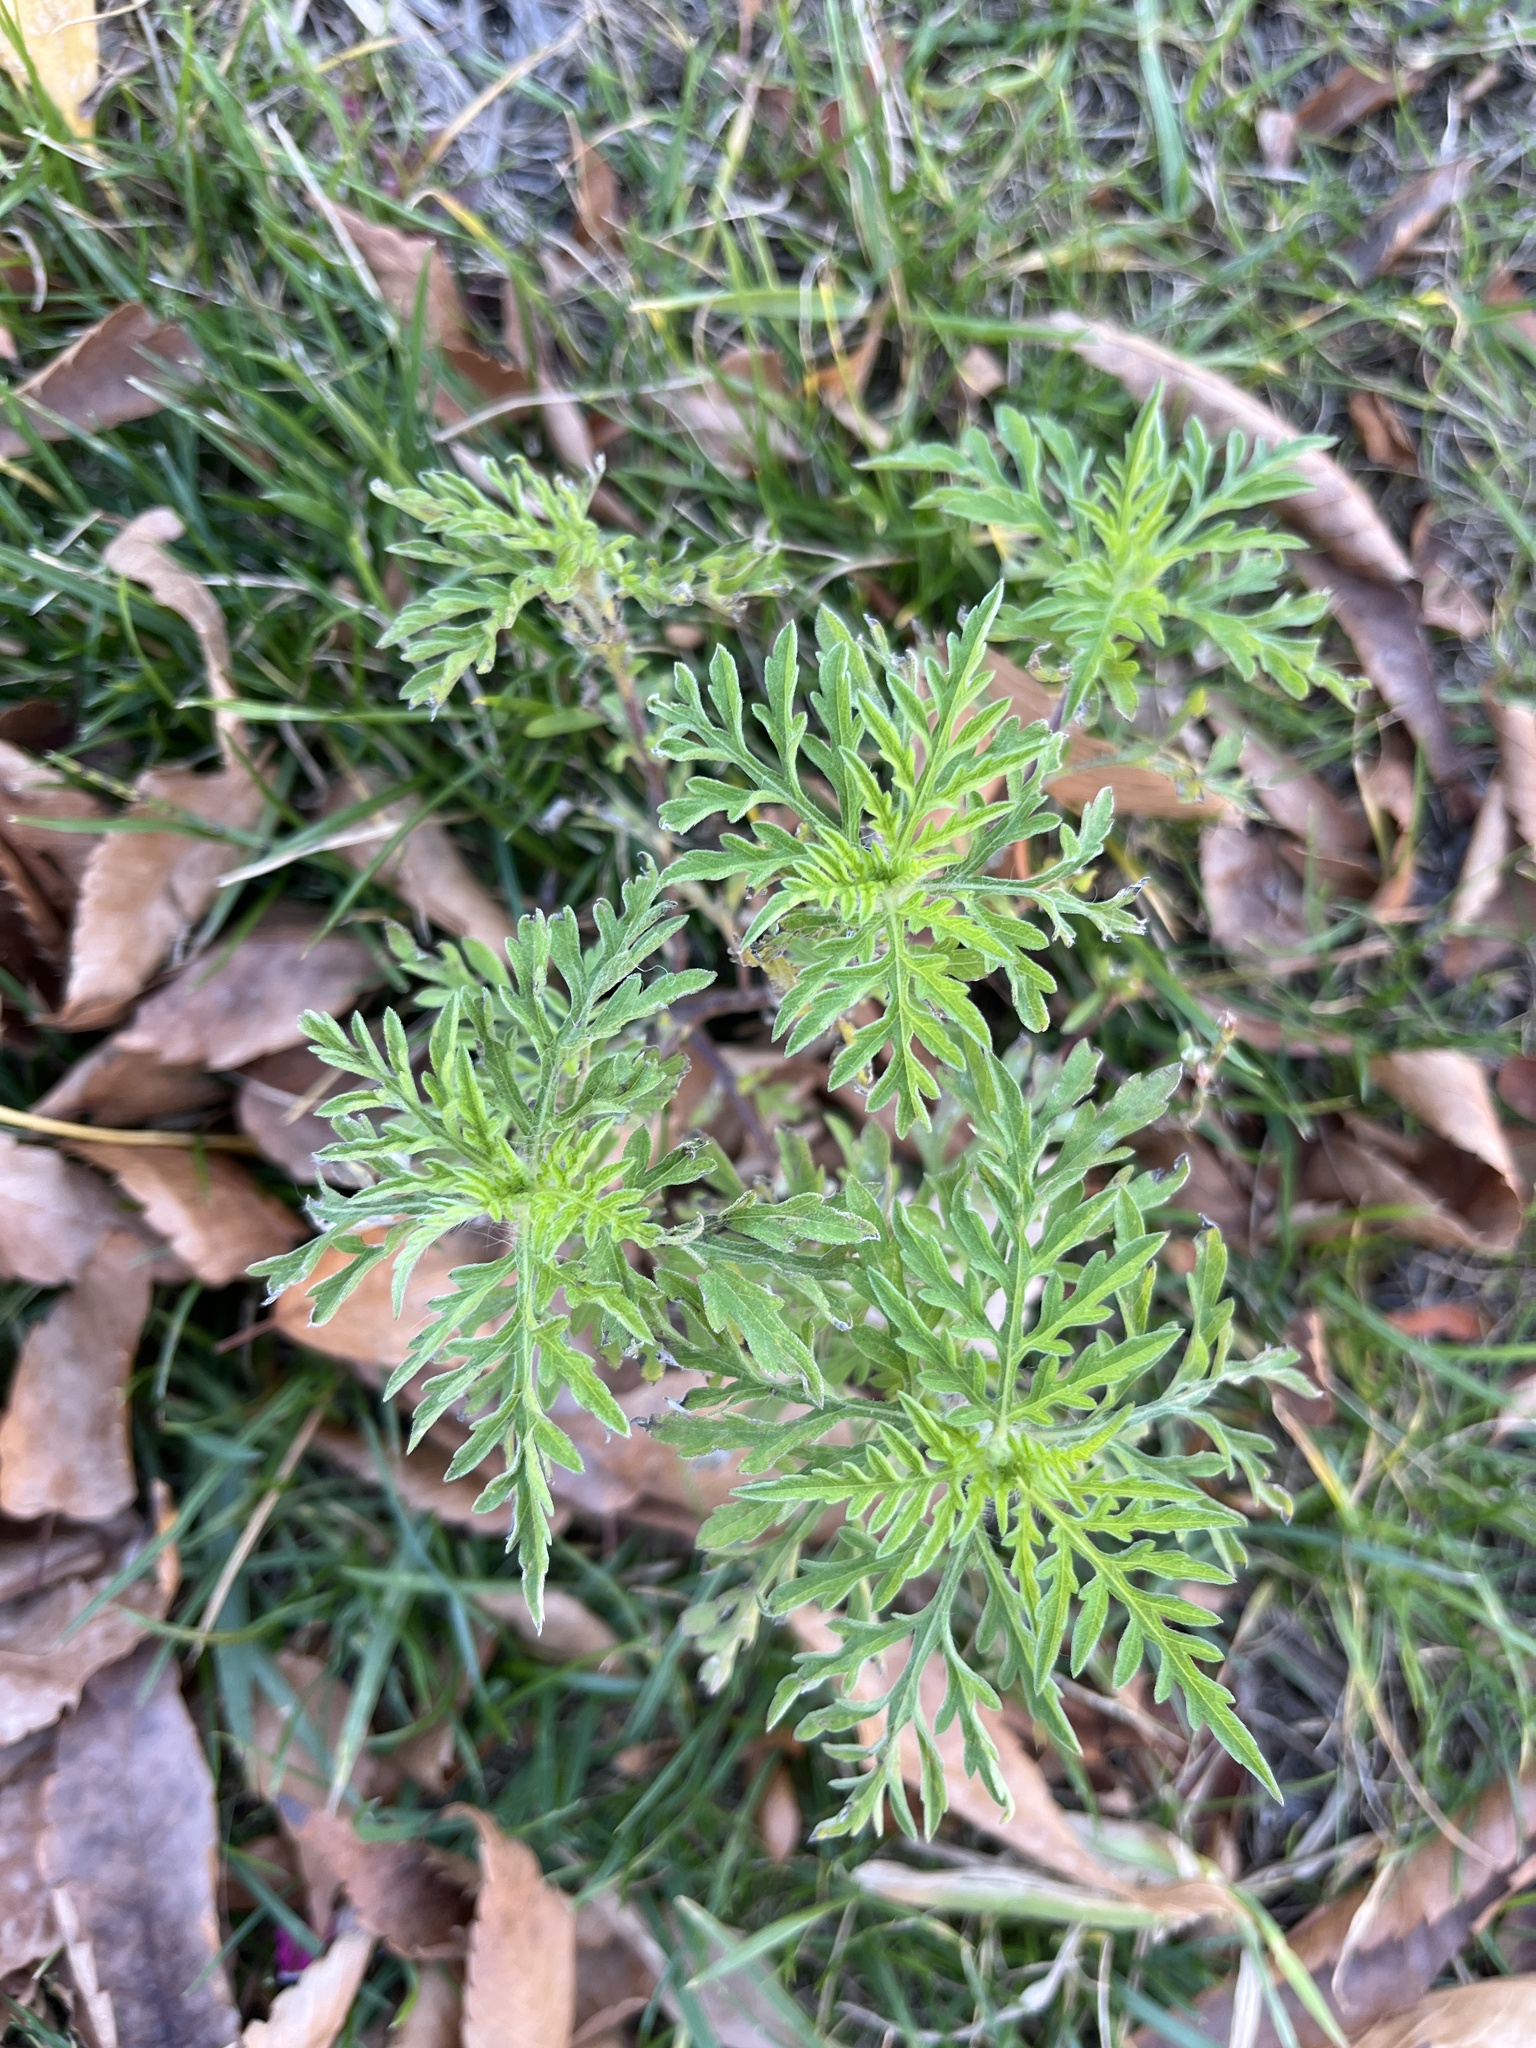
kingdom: Plantae
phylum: Tracheophyta
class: Magnoliopsida
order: Asterales
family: Asteraceae
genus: Ambrosia
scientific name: Ambrosia artemisiifolia
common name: Annual ragweed
